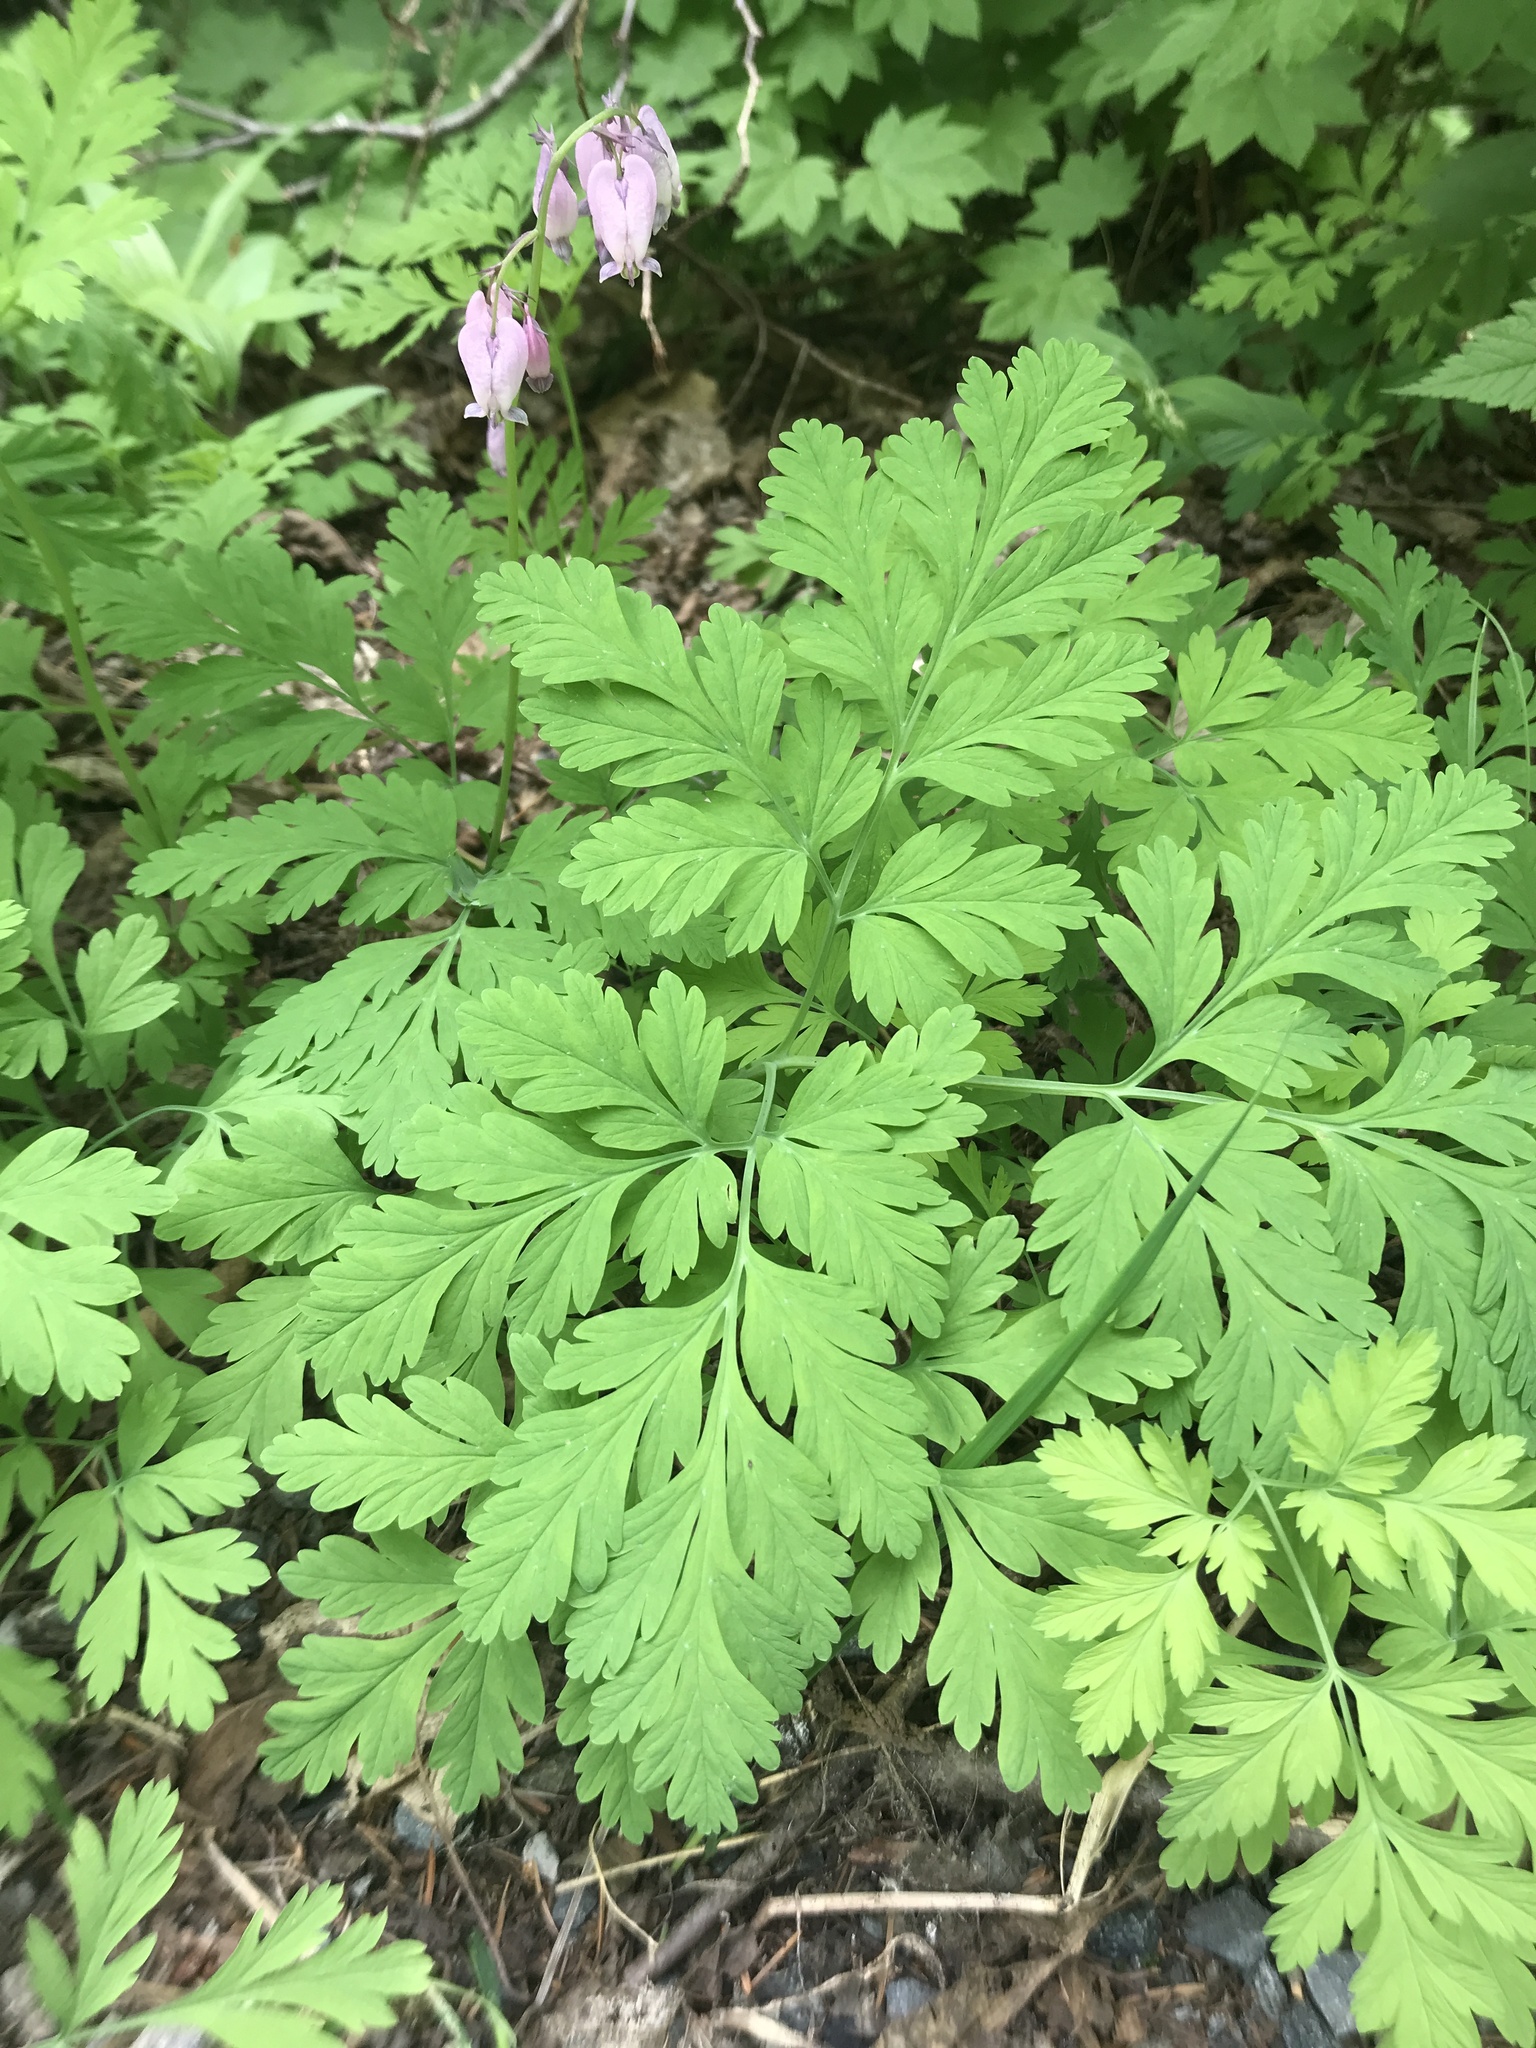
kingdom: Plantae
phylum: Tracheophyta
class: Magnoliopsida
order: Ranunculales
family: Papaveraceae
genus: Dicentra
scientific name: Dicentra formosa
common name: Bleeding-heart
